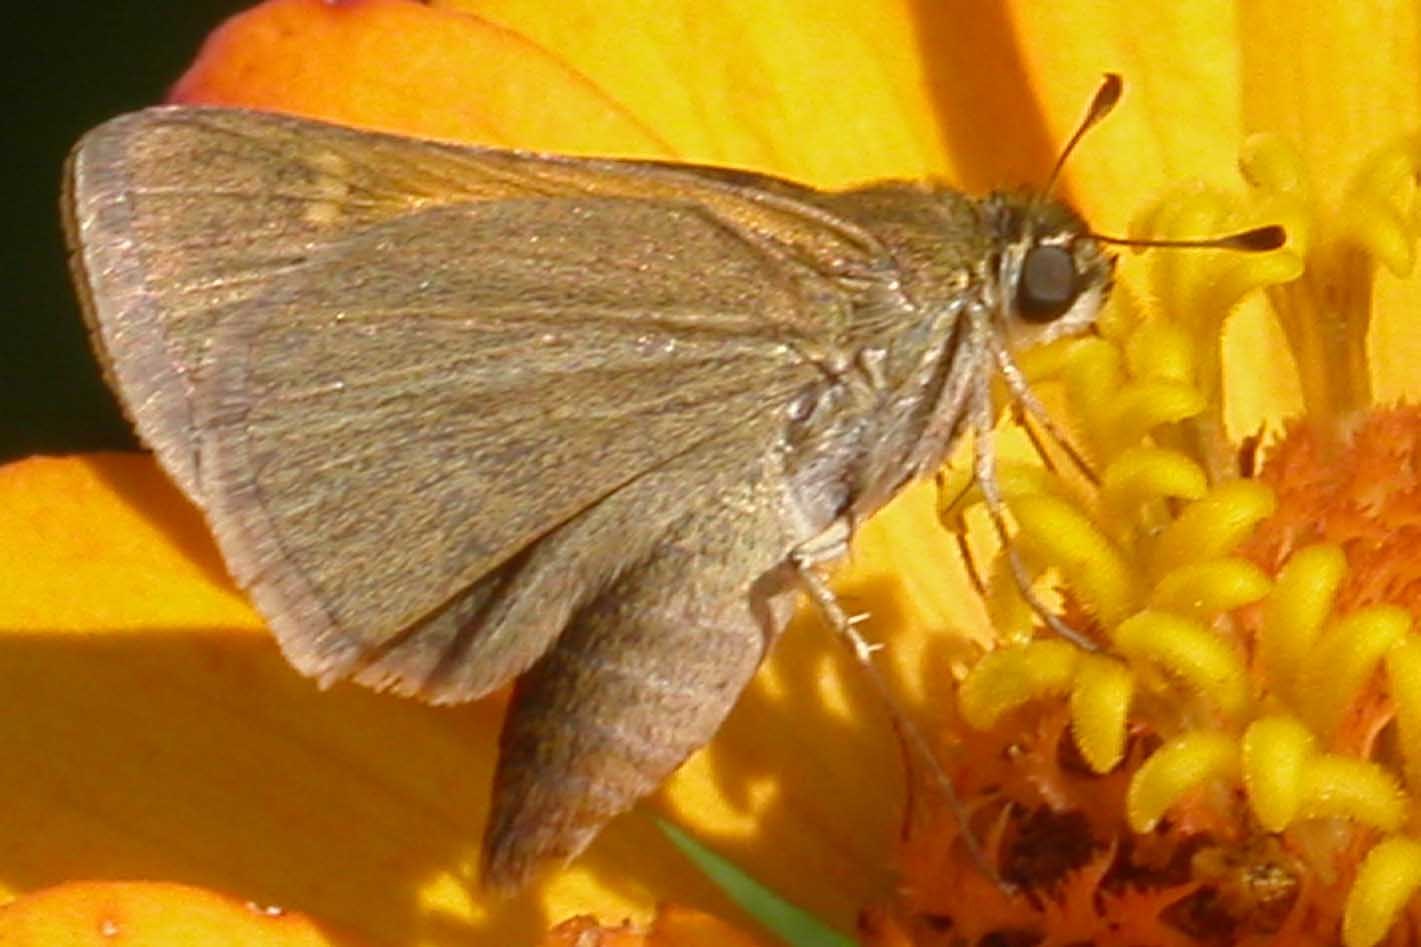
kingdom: Animalia
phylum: Arthropoda
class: Insecta
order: Lepidoptera
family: Hesperiidae
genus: Polites
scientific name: Polites themistocles
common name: Tawny-edged skipper
